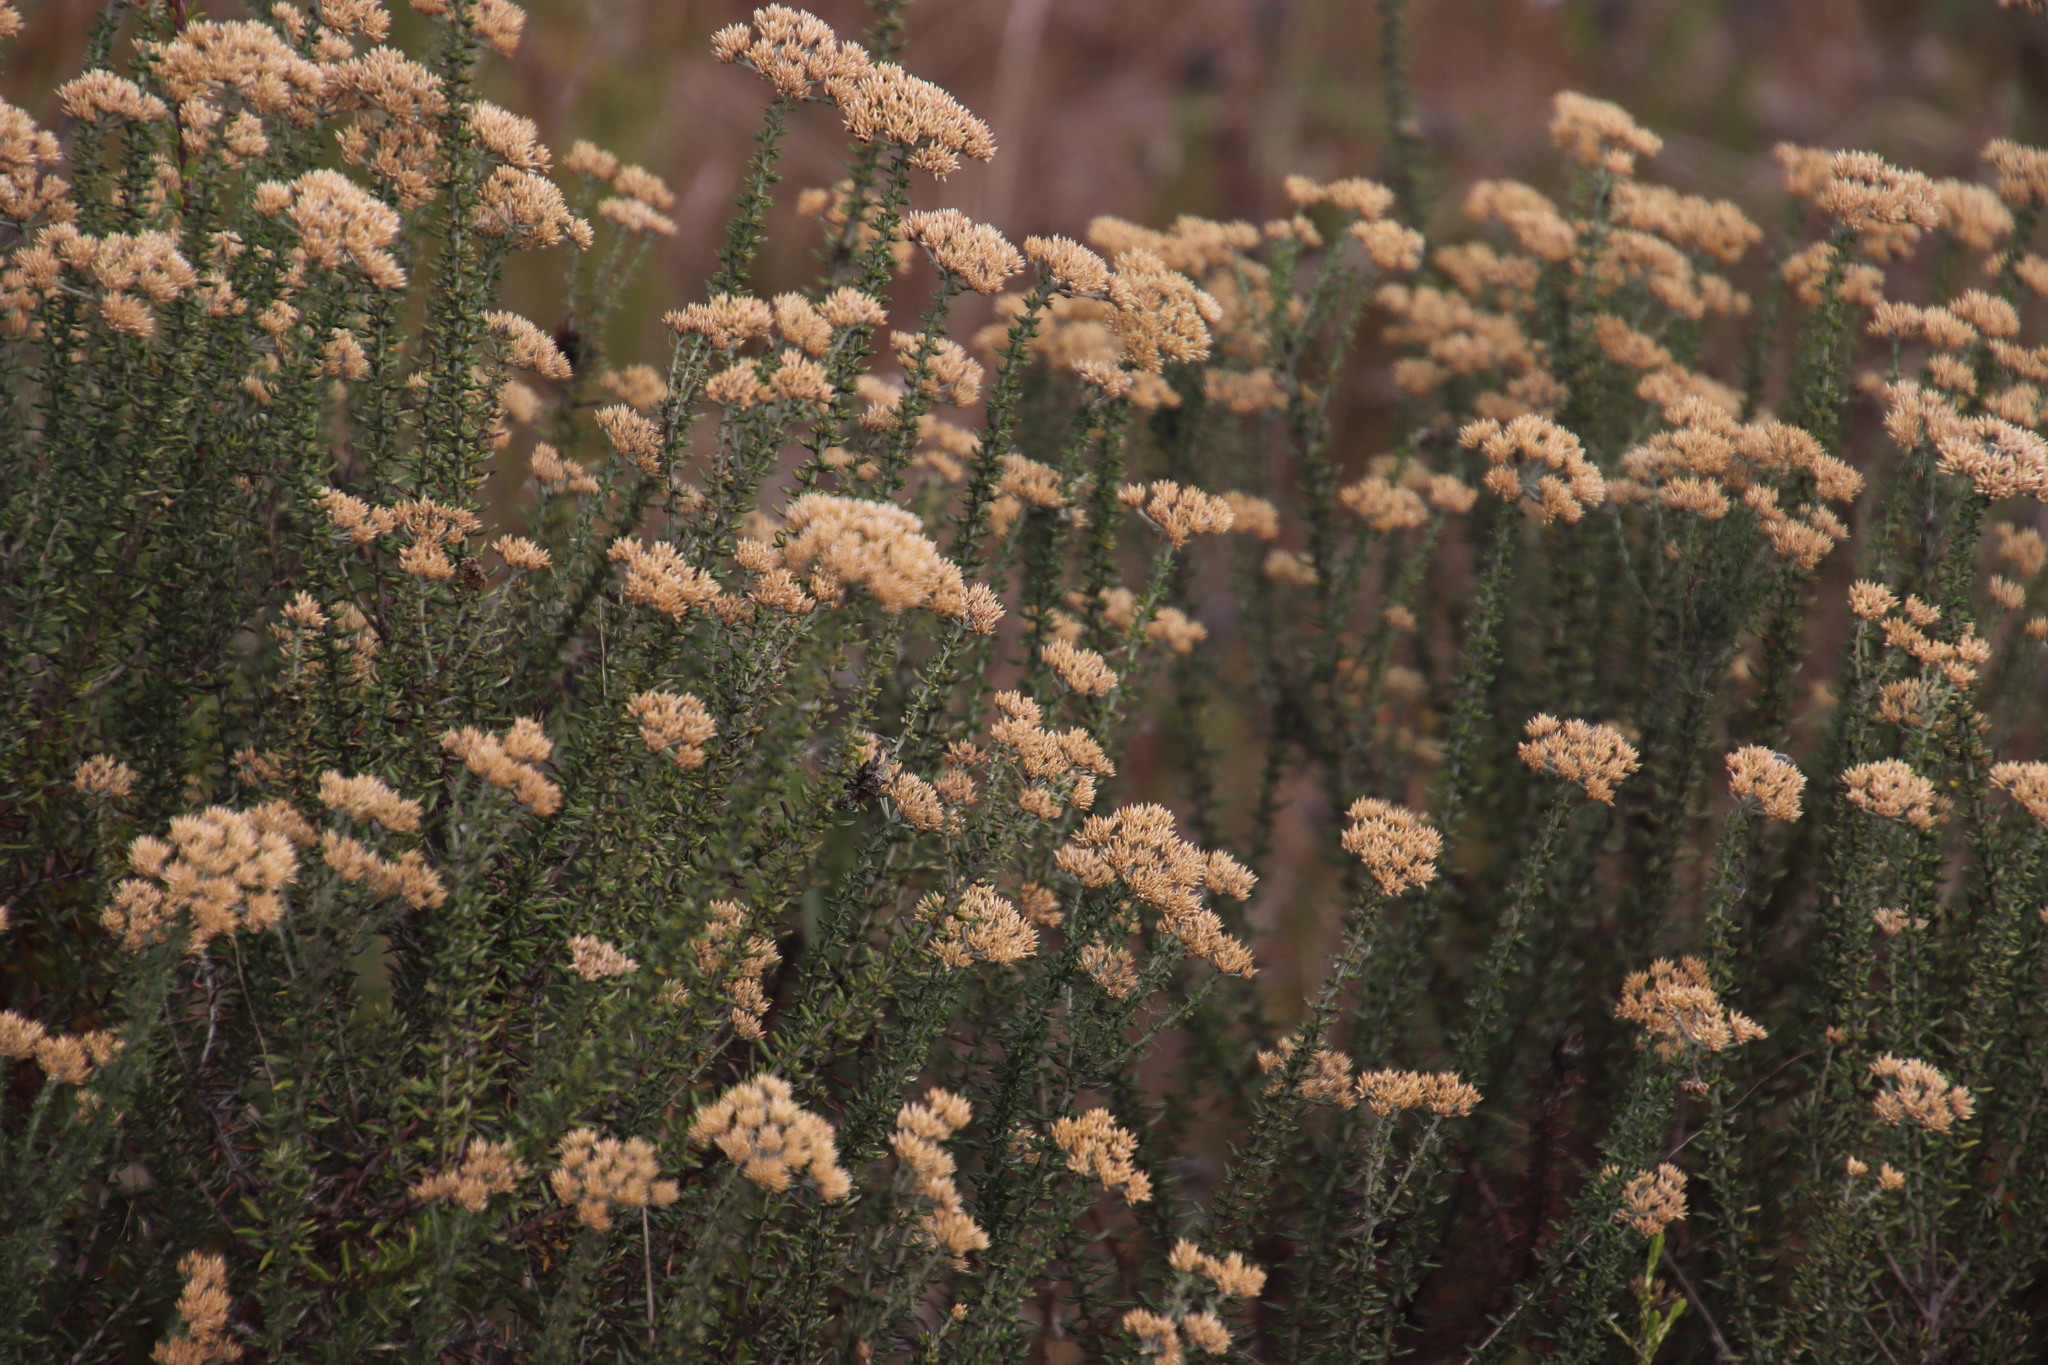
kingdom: Plantae
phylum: Tracheophyta
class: Magnoliopsida
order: Asterales
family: Asteraceae
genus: Metalasia
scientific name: Metalasia densa
